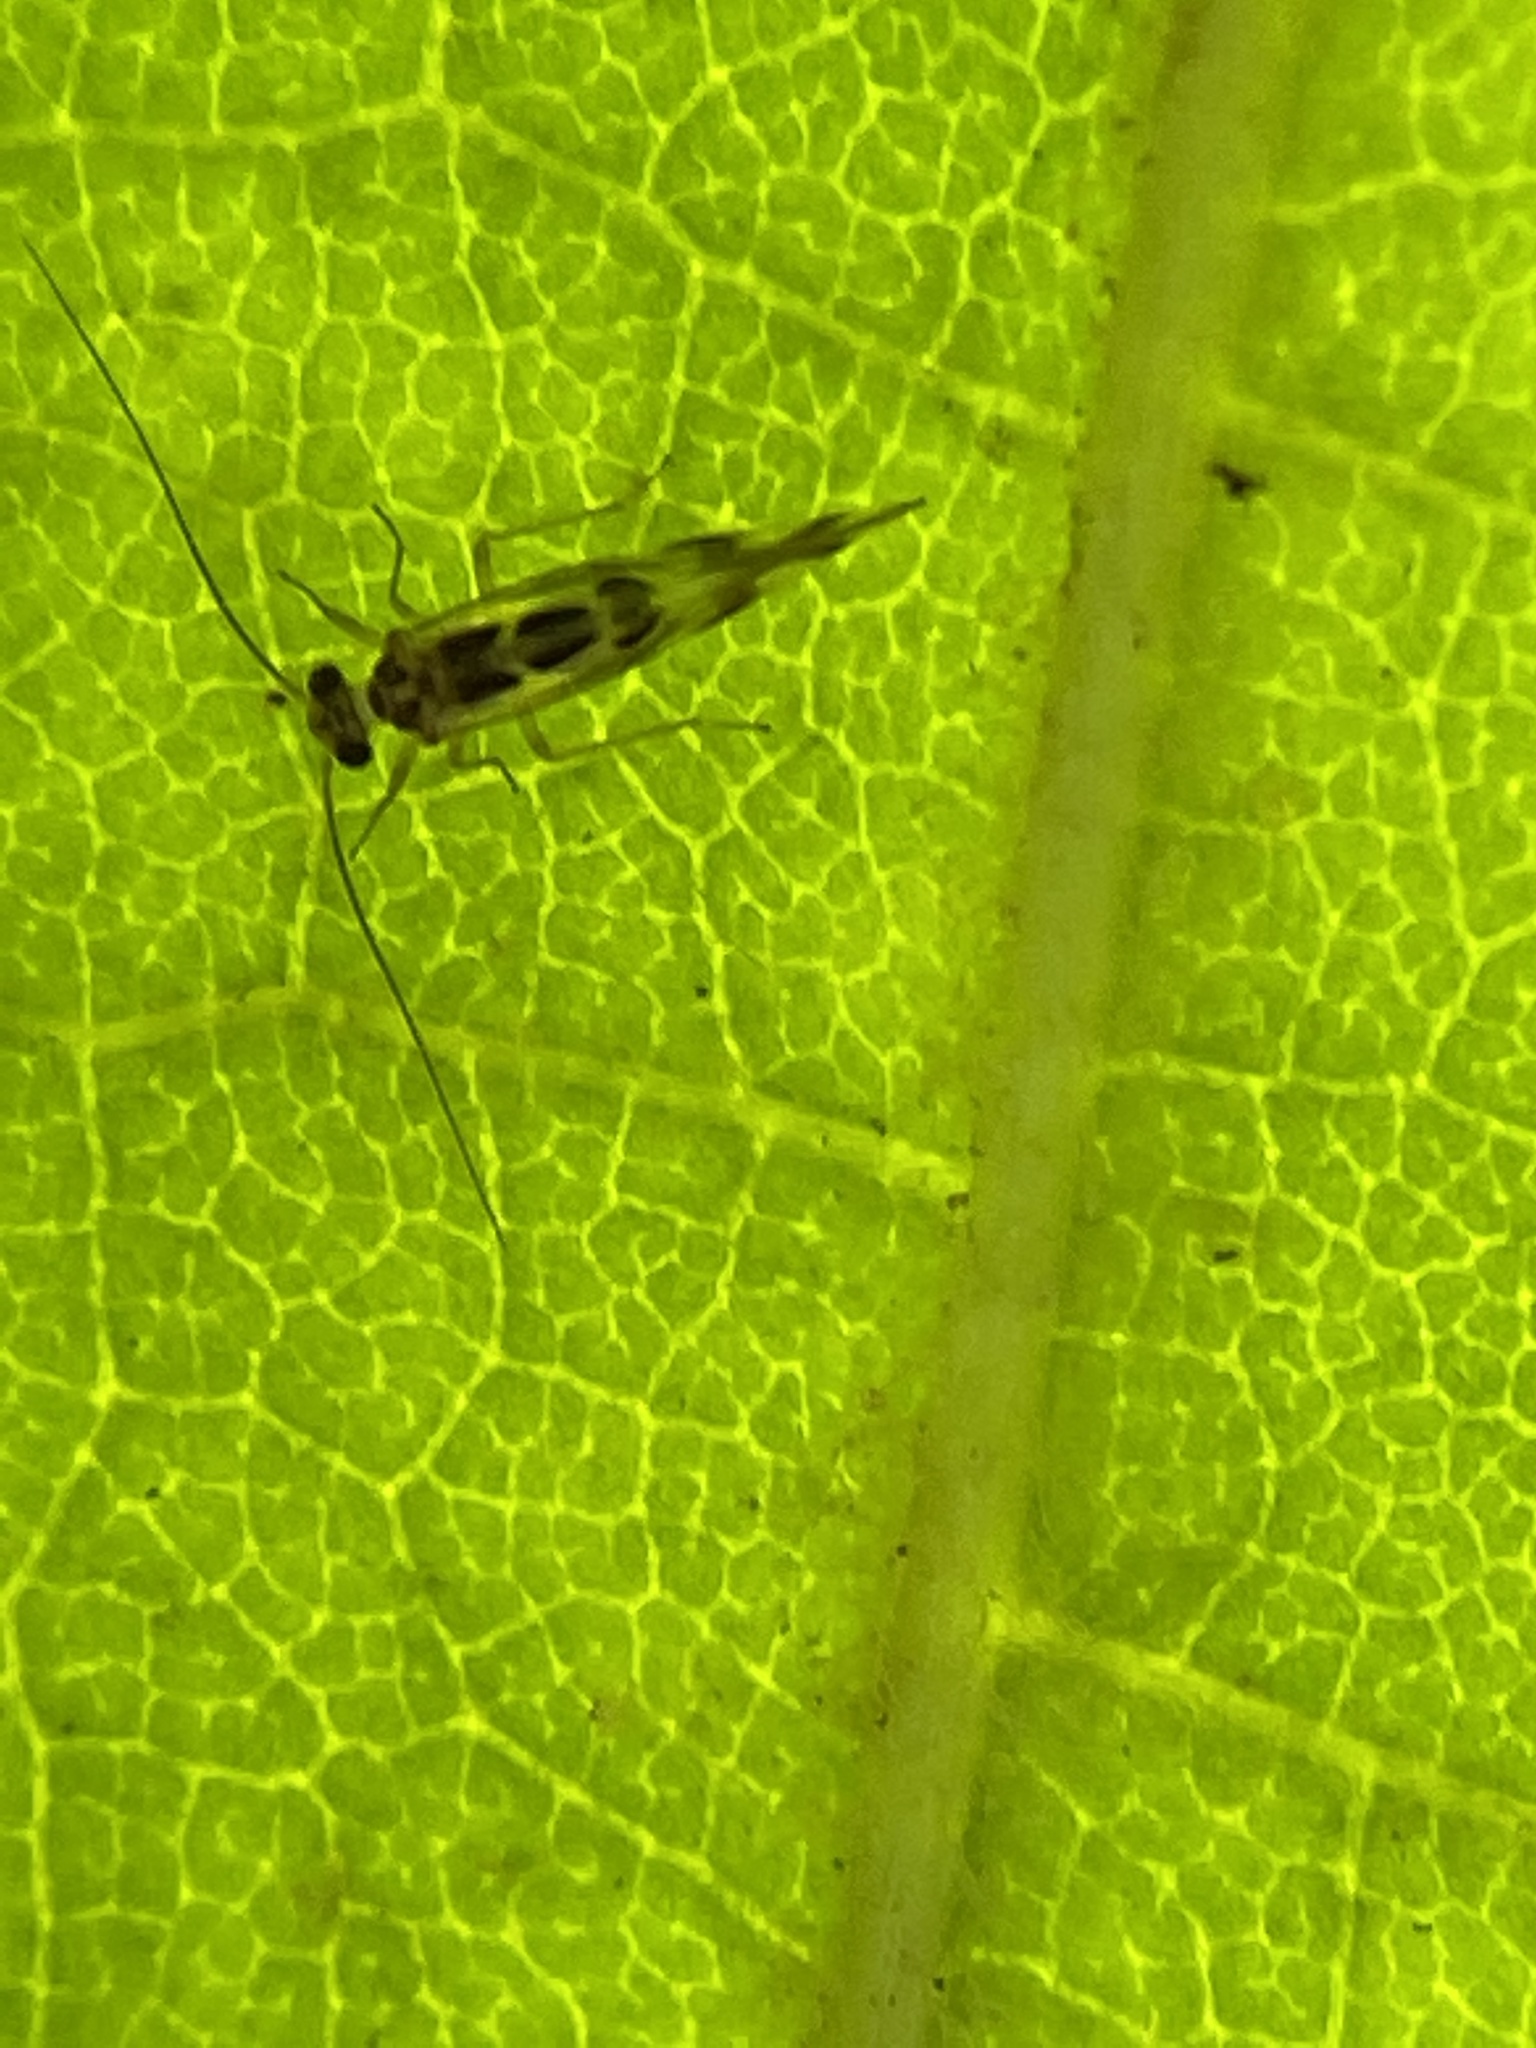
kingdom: Animalia
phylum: Arthropoda
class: Insecta
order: Psocodea
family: Stenopsocidae
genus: Graphopsocus
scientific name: Graphopsocus cruciatus
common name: Lizard bark louse
